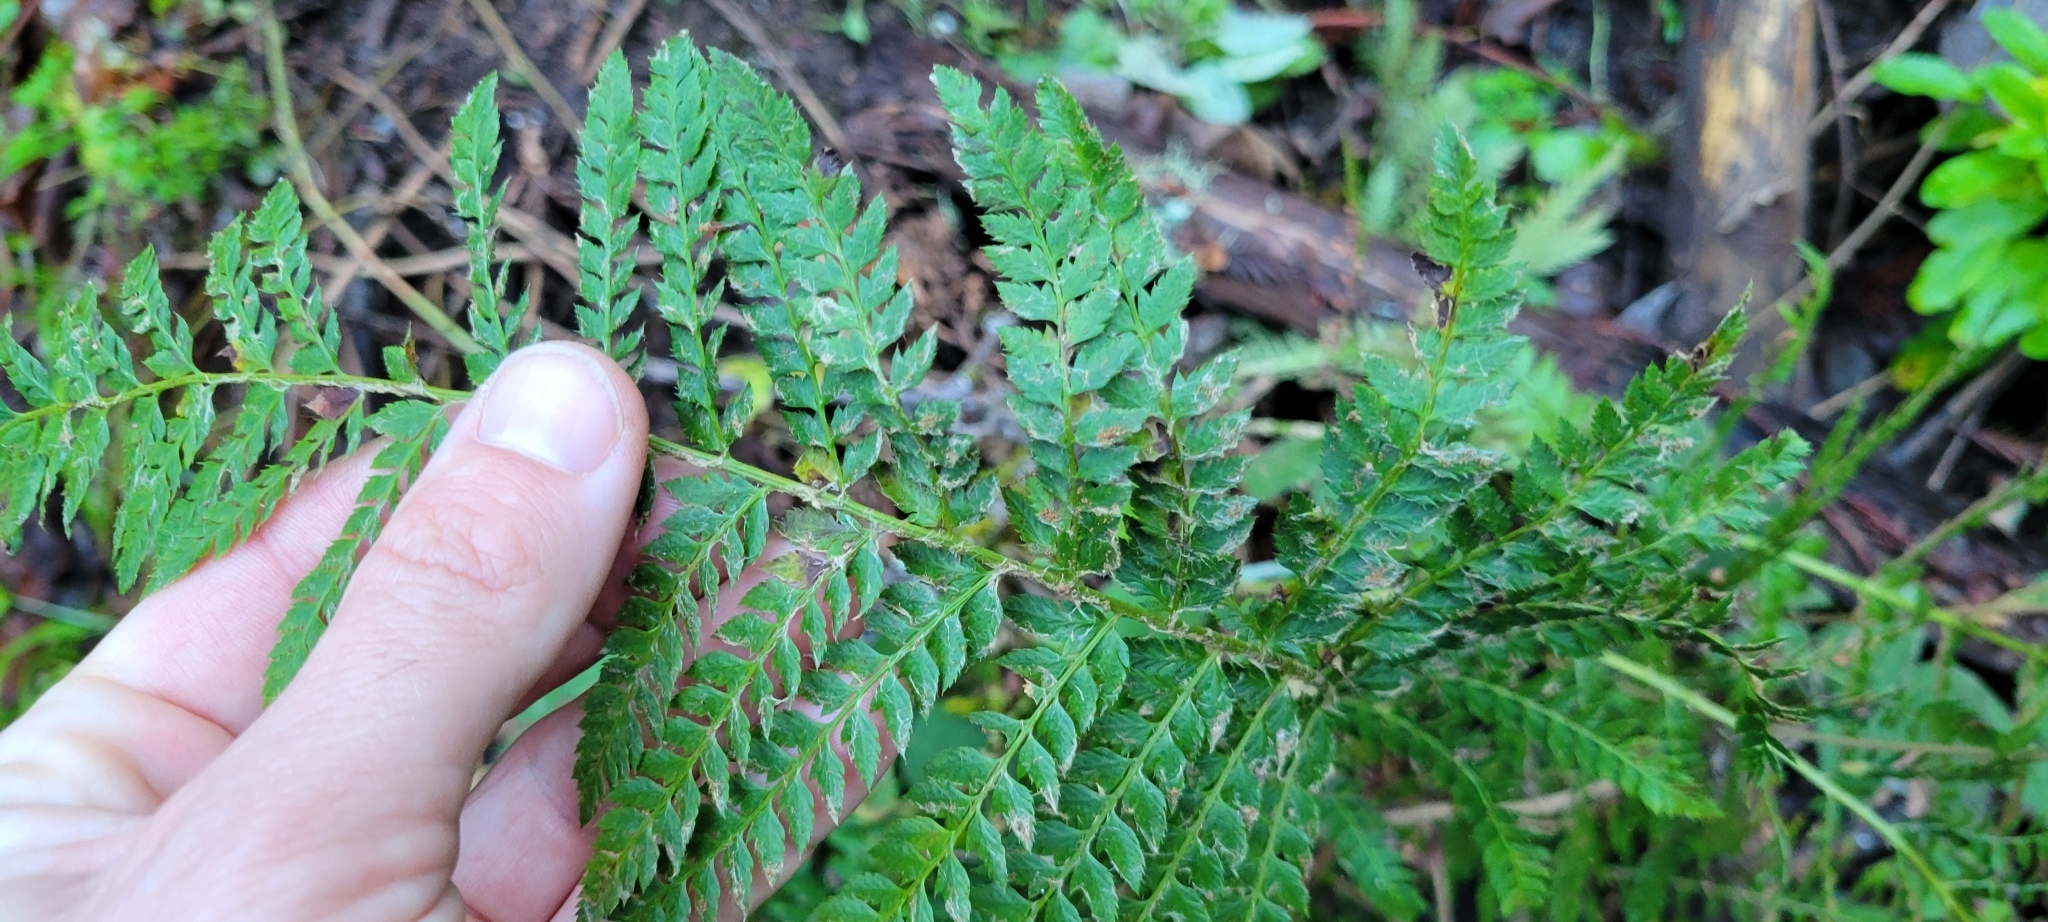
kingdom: Plantae
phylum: Tracheophyta
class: Polypodiopsida
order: Polypodiales
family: Dryopteridaceae
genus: Polystichum
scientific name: Polystichum dudleyi
